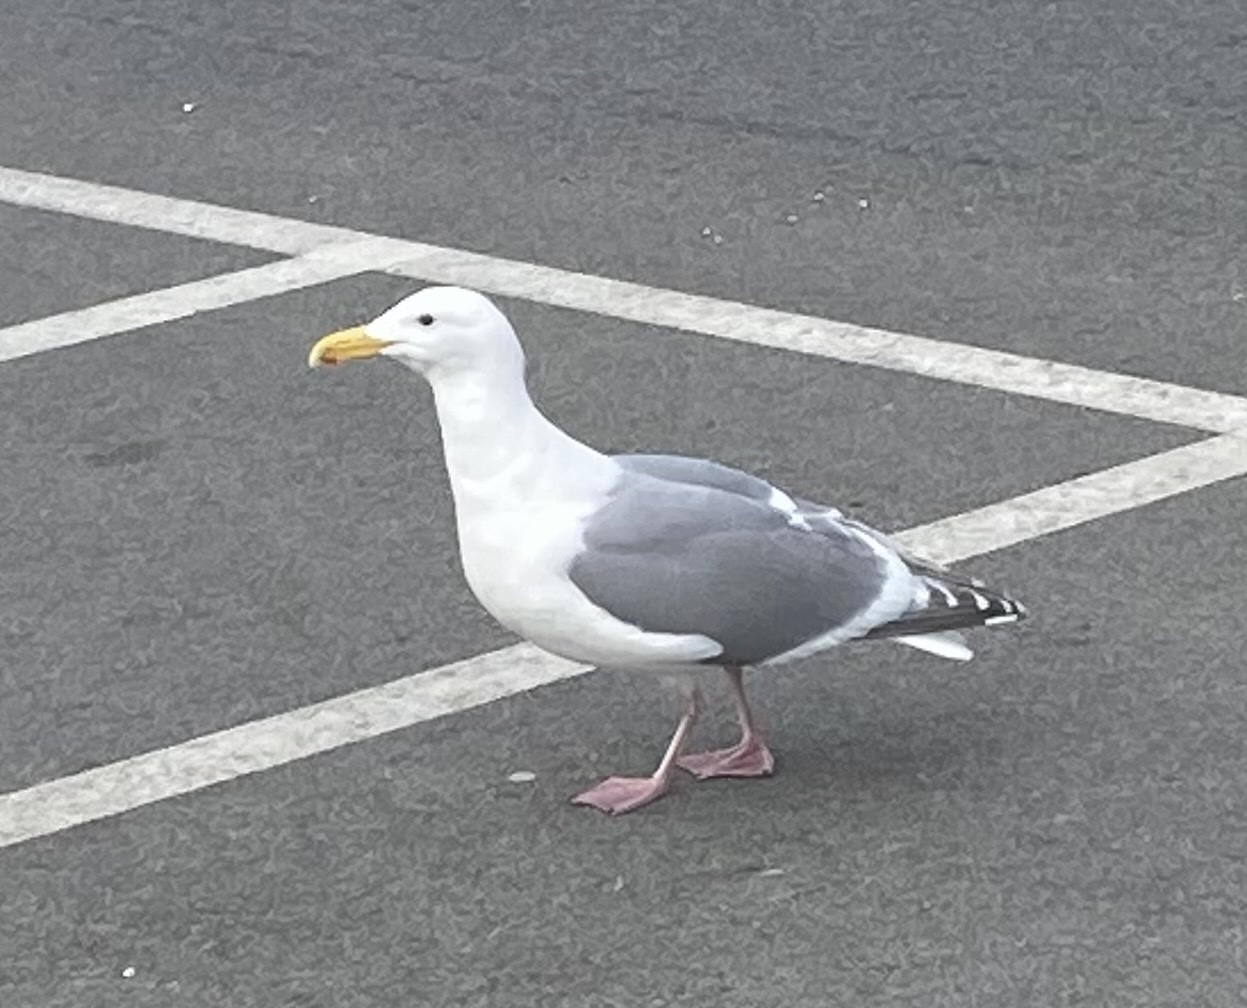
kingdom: Animalia
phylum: Chordata
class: Aves
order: Charadriiformes
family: Laridae
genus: Larus
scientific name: Larus
